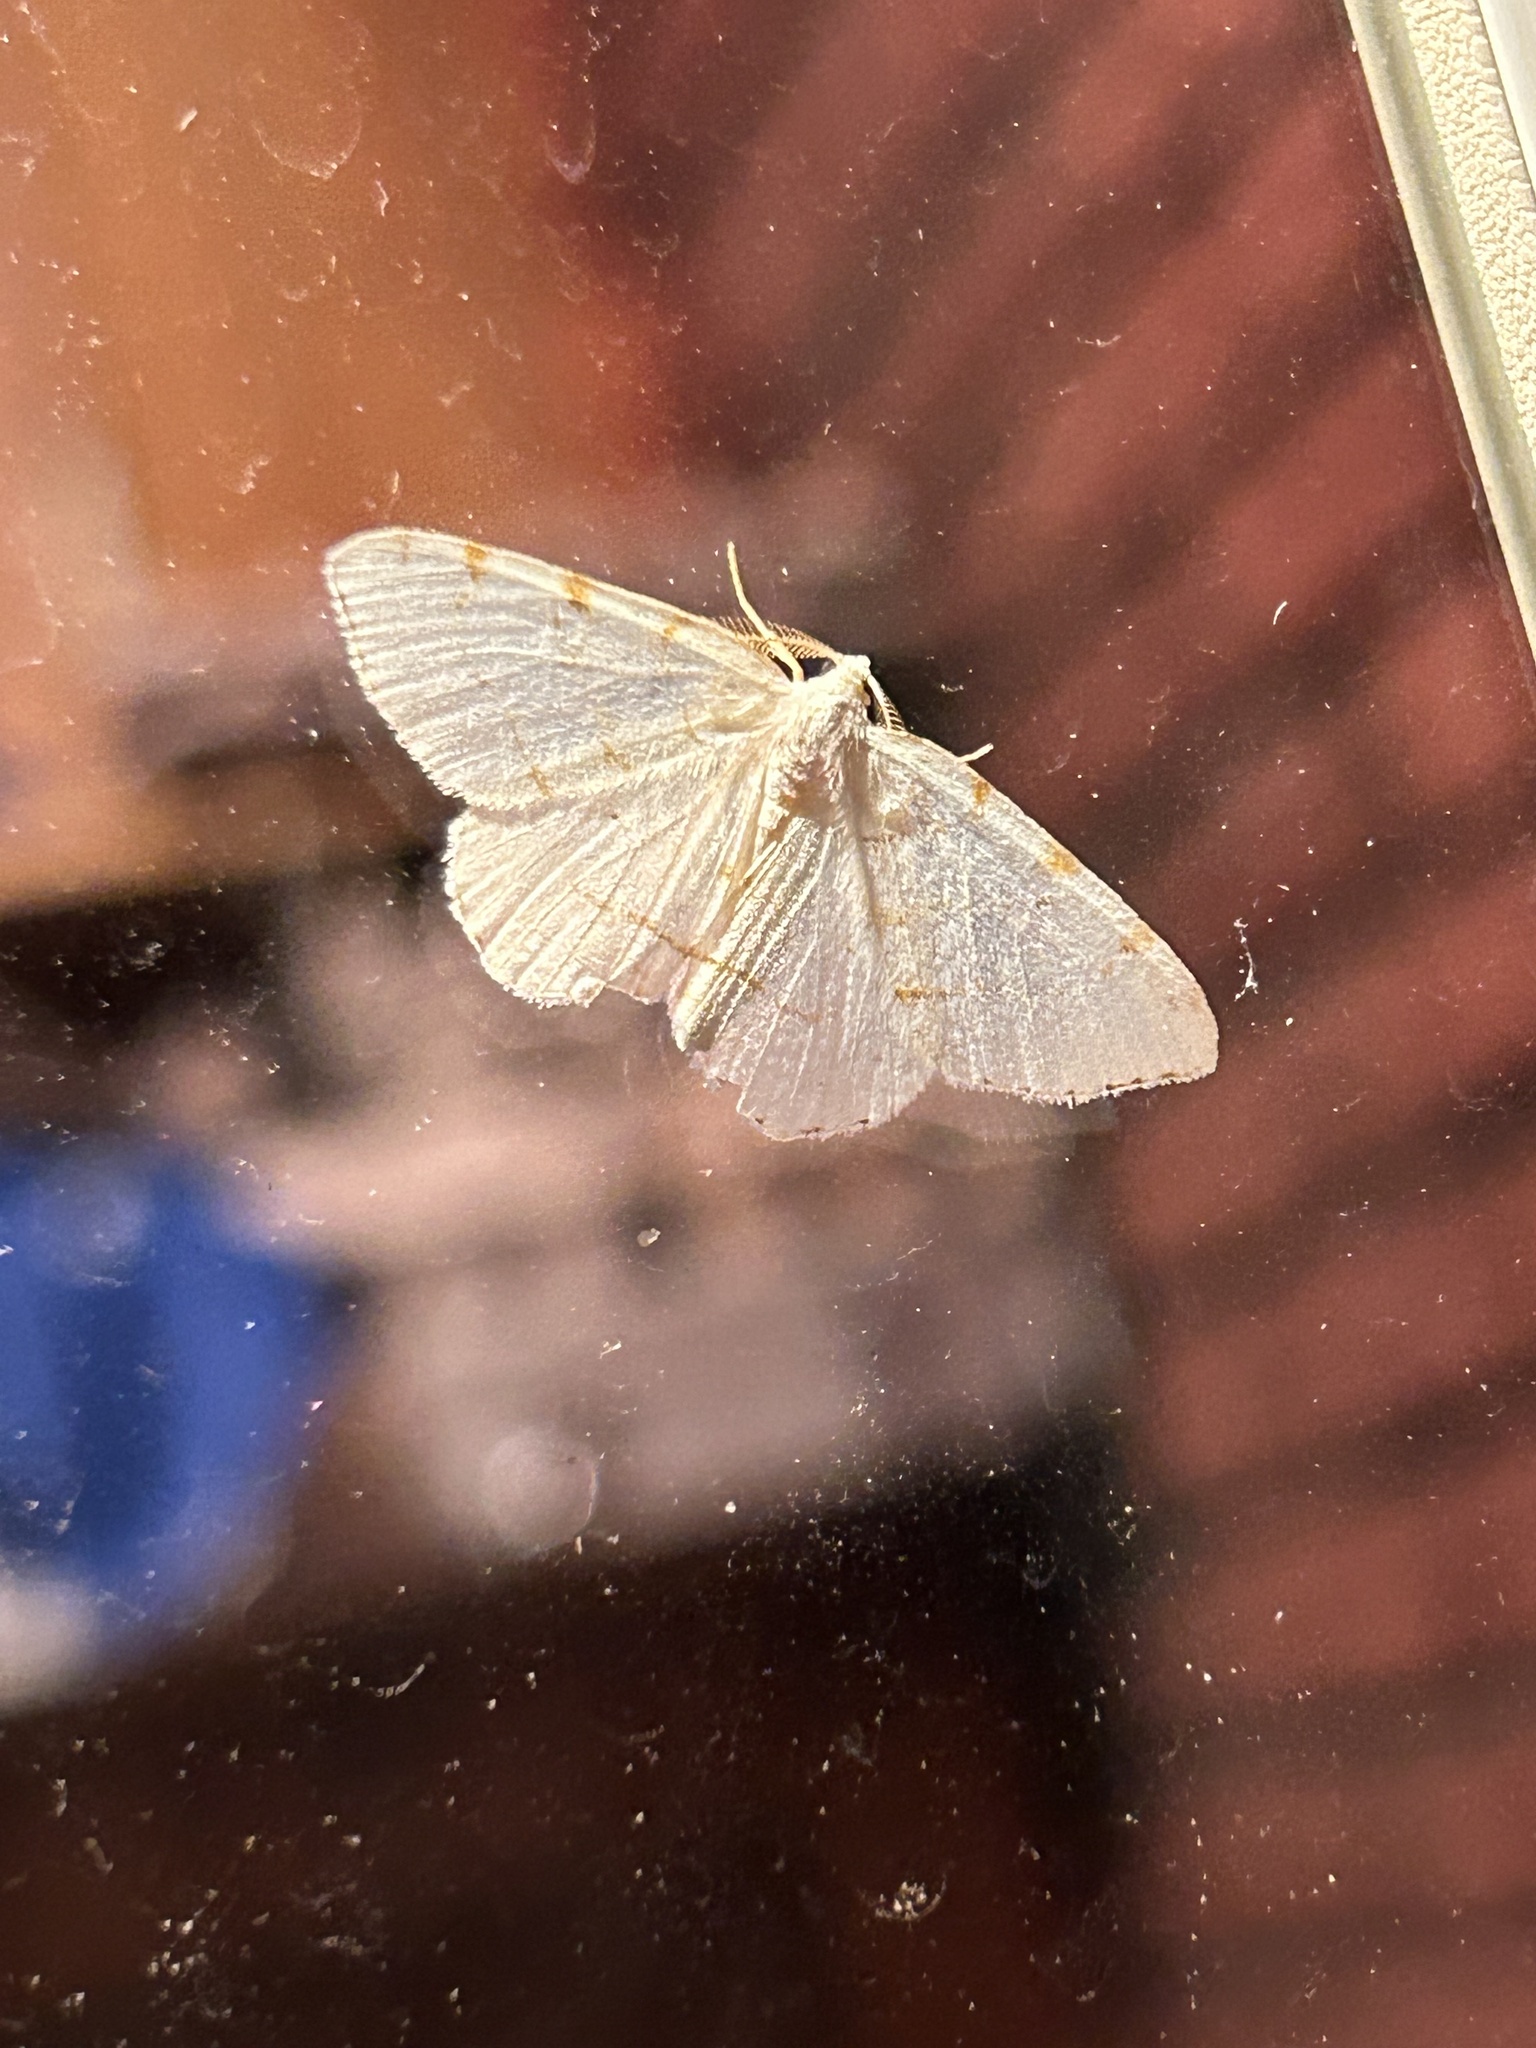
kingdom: Animalia
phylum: Arthropoda
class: Insecta
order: Lepidoptera
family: Geometridae
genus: Macaria
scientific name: Macaria pustularia
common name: Lesser maple spanworm moth
